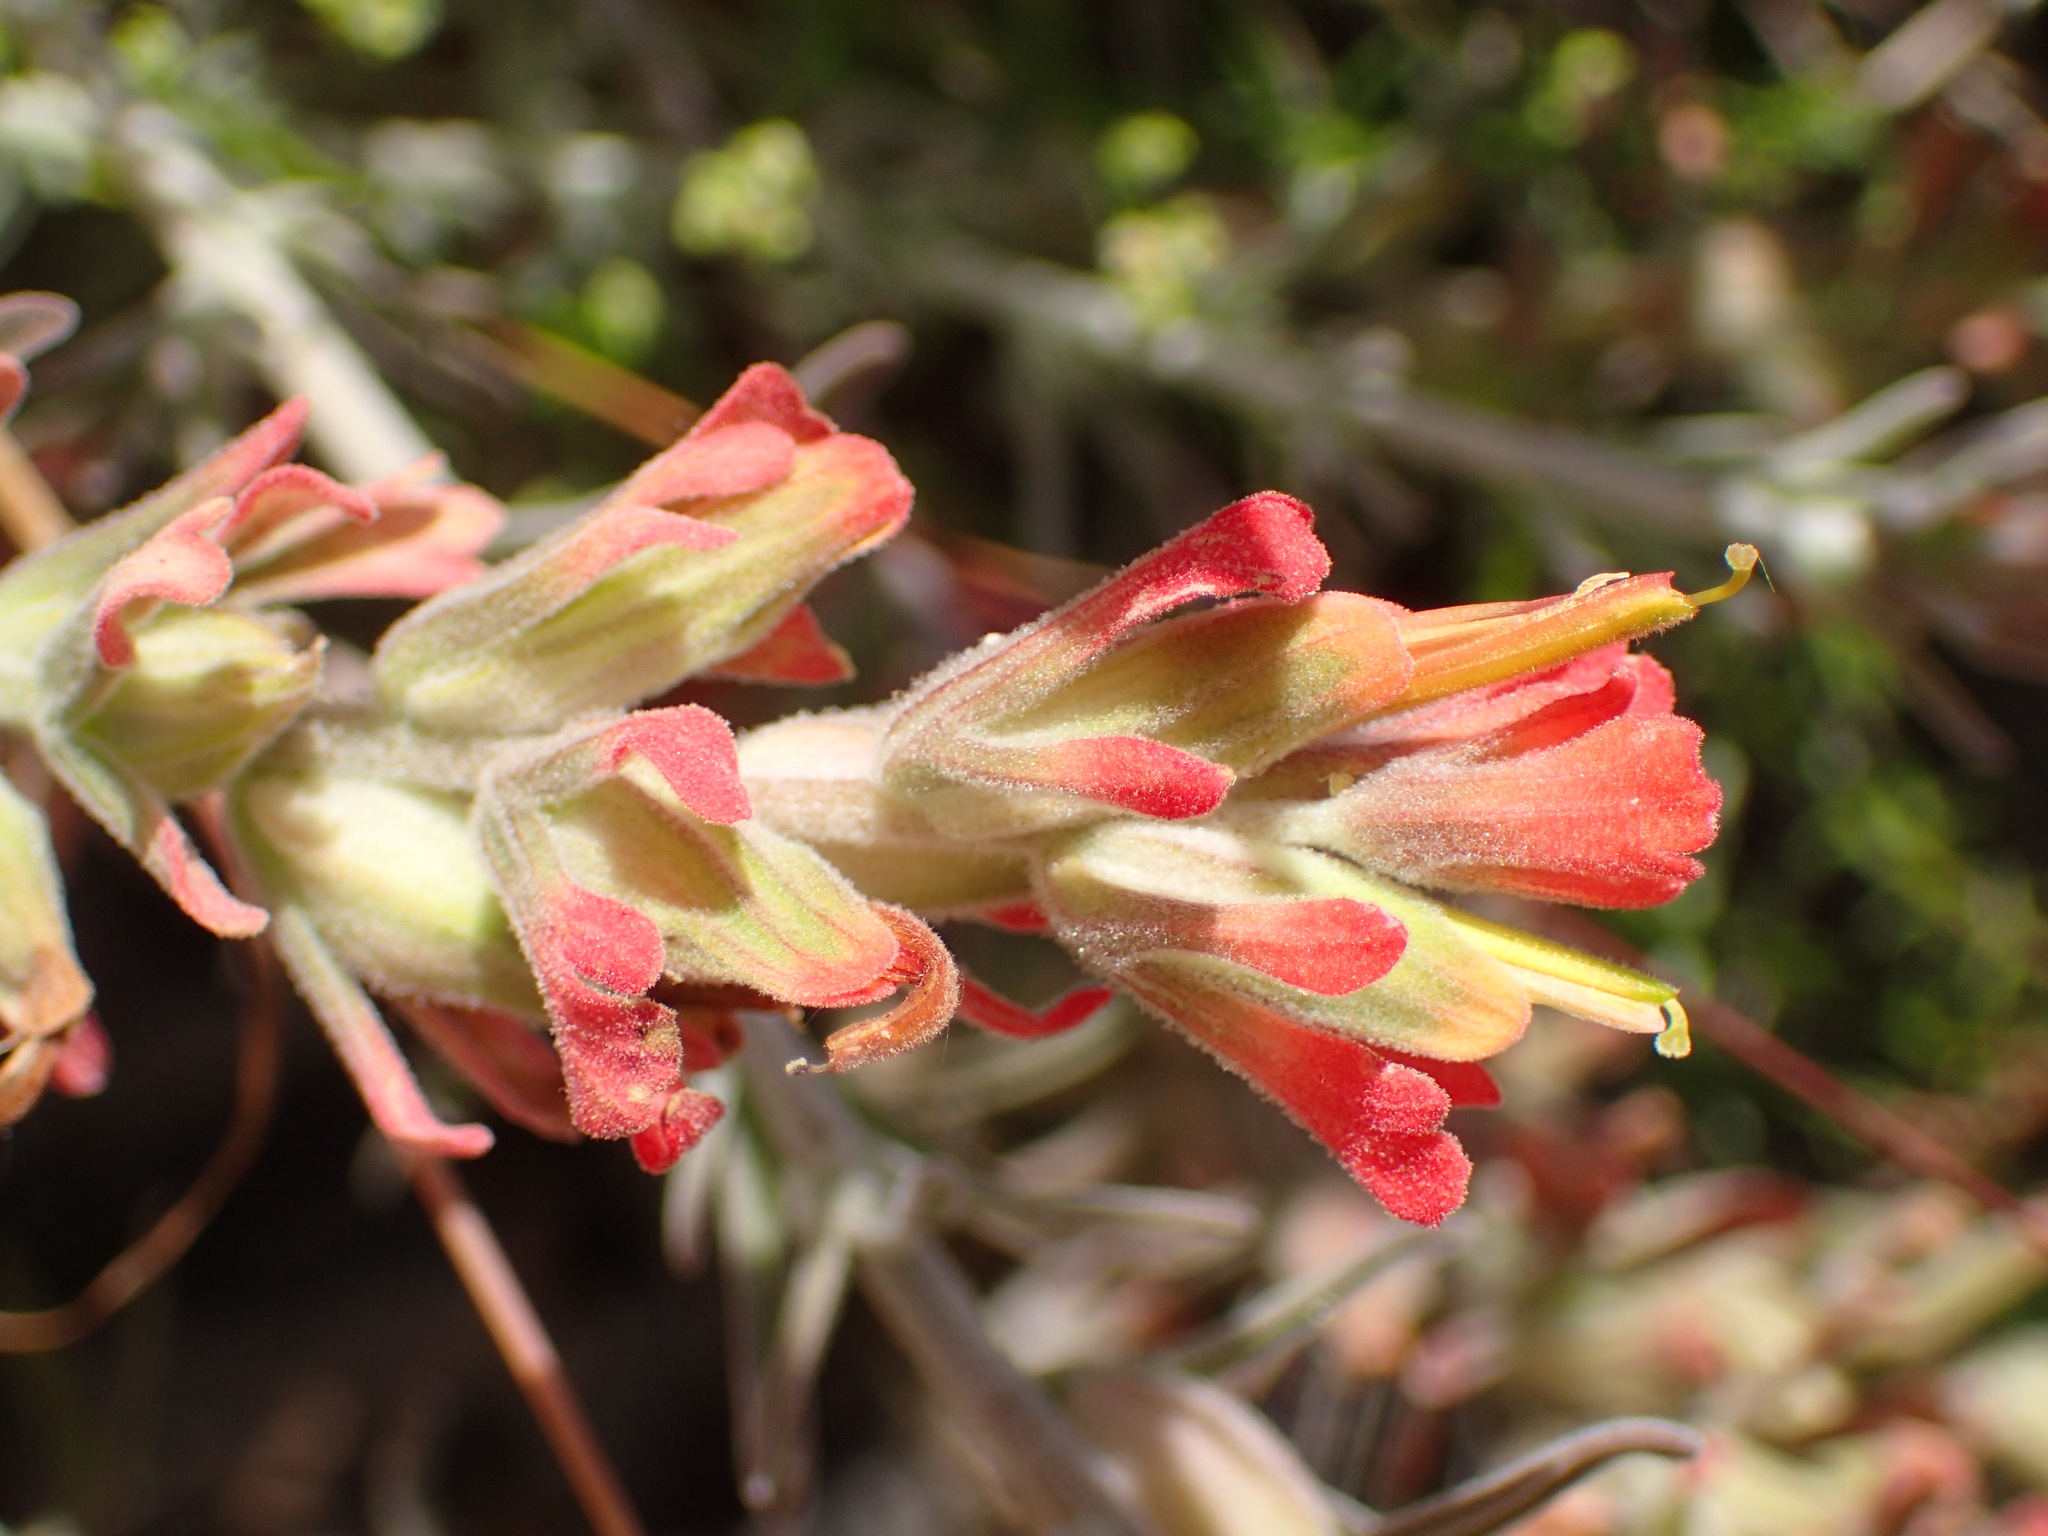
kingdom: Plantae
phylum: Tracheophyta
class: Magnoliopsida
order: Lamiales
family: Orobanchaceae
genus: Castilleja
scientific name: Castilleja foliolosa
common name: Woolly indian paintbrush
